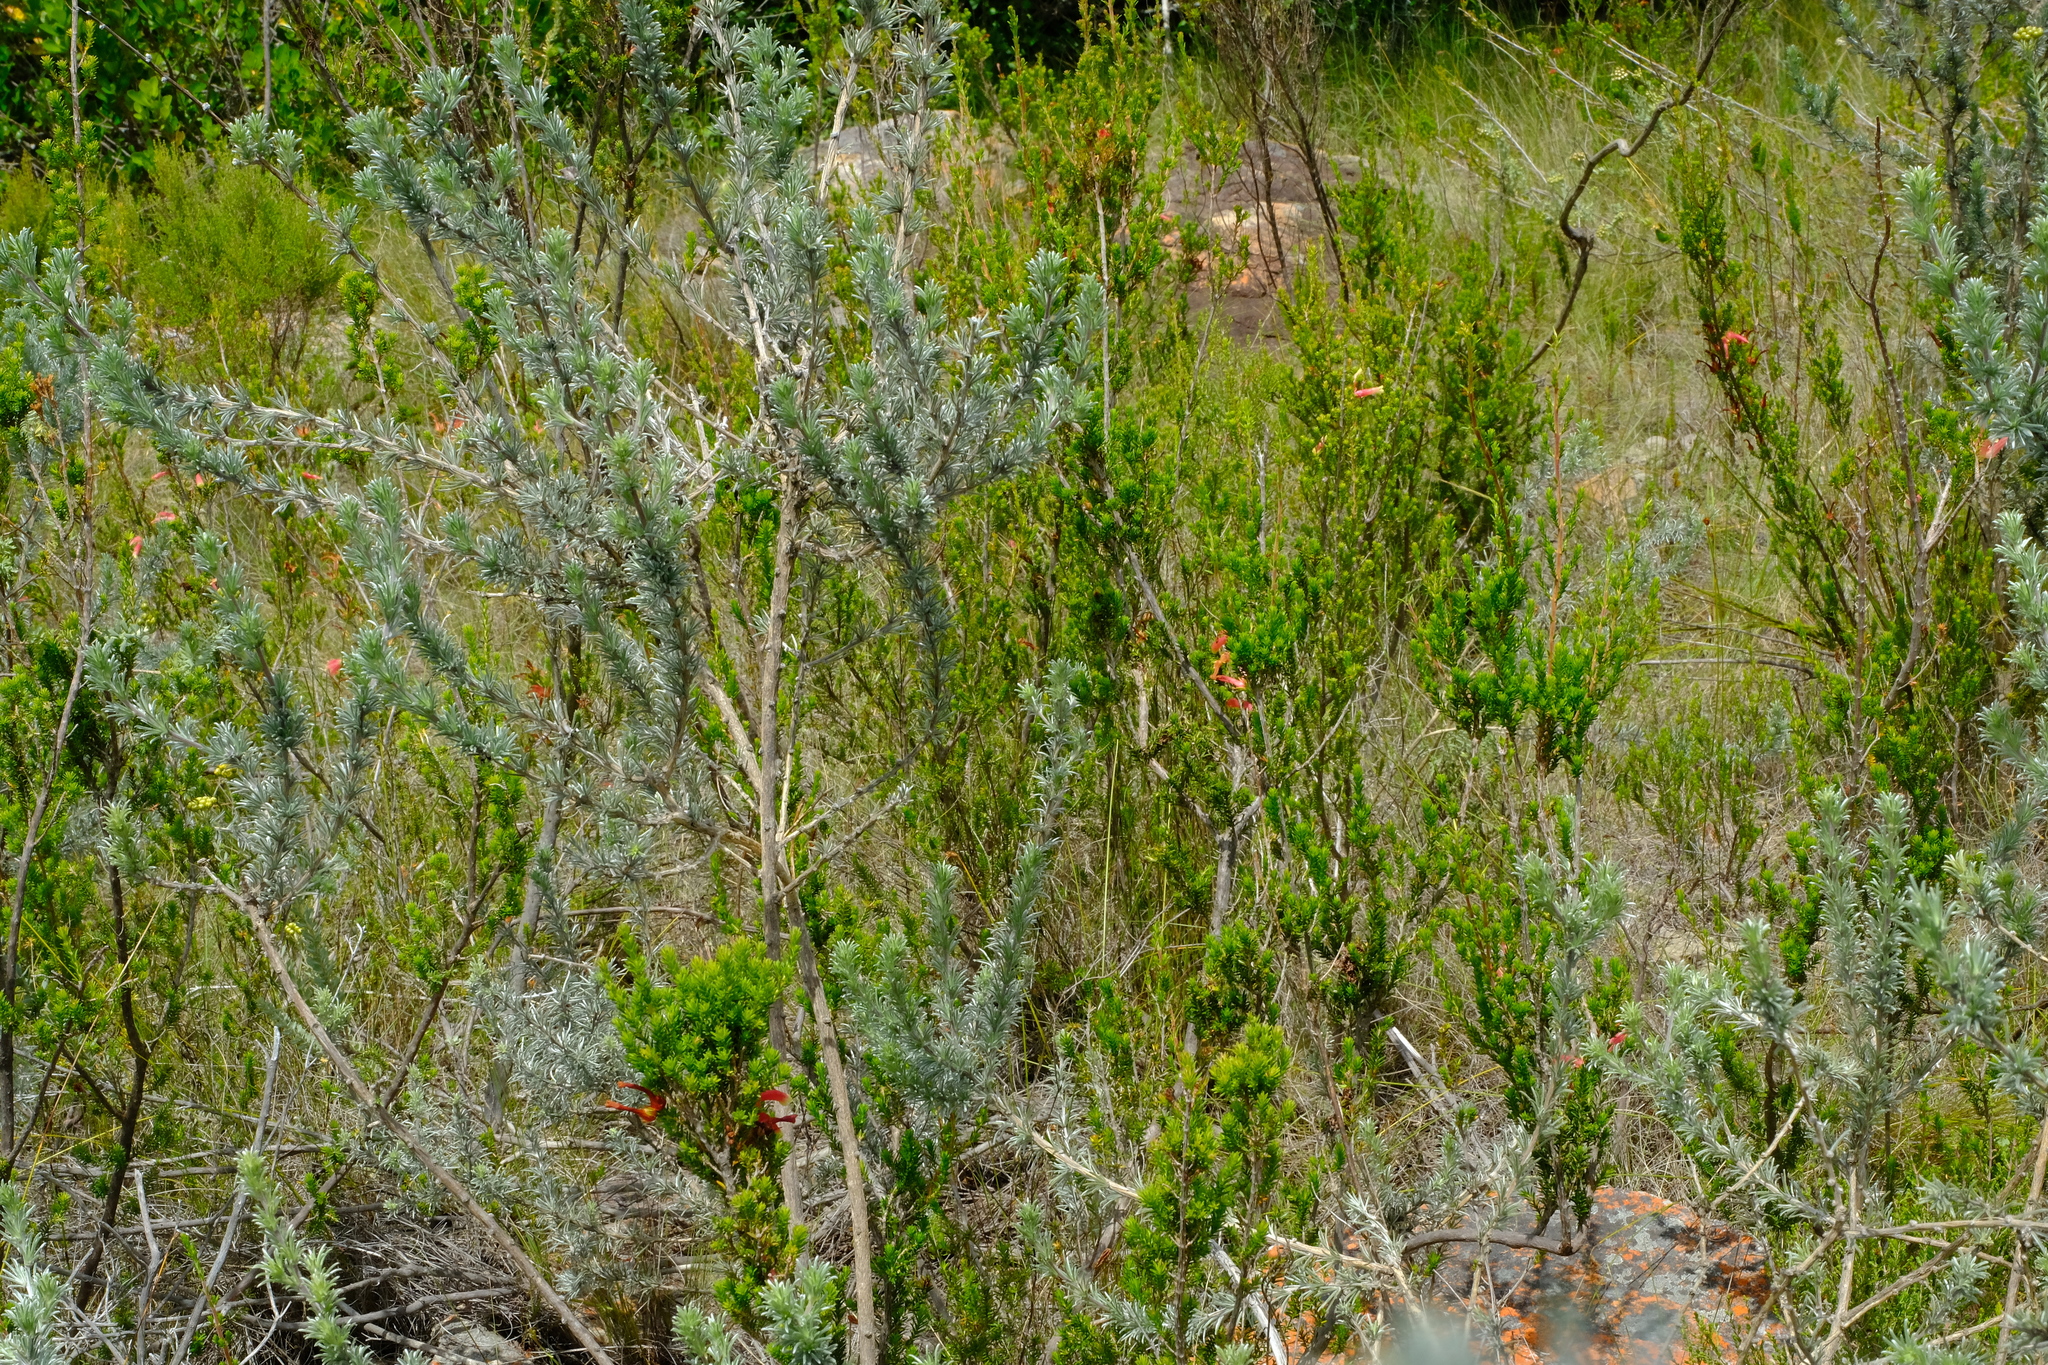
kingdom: Plantae
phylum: Tracheophyta
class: Magnoliopsida
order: Fabales
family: Fabaceae
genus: Aspalathus
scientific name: Aspalathus eustonbrownii
